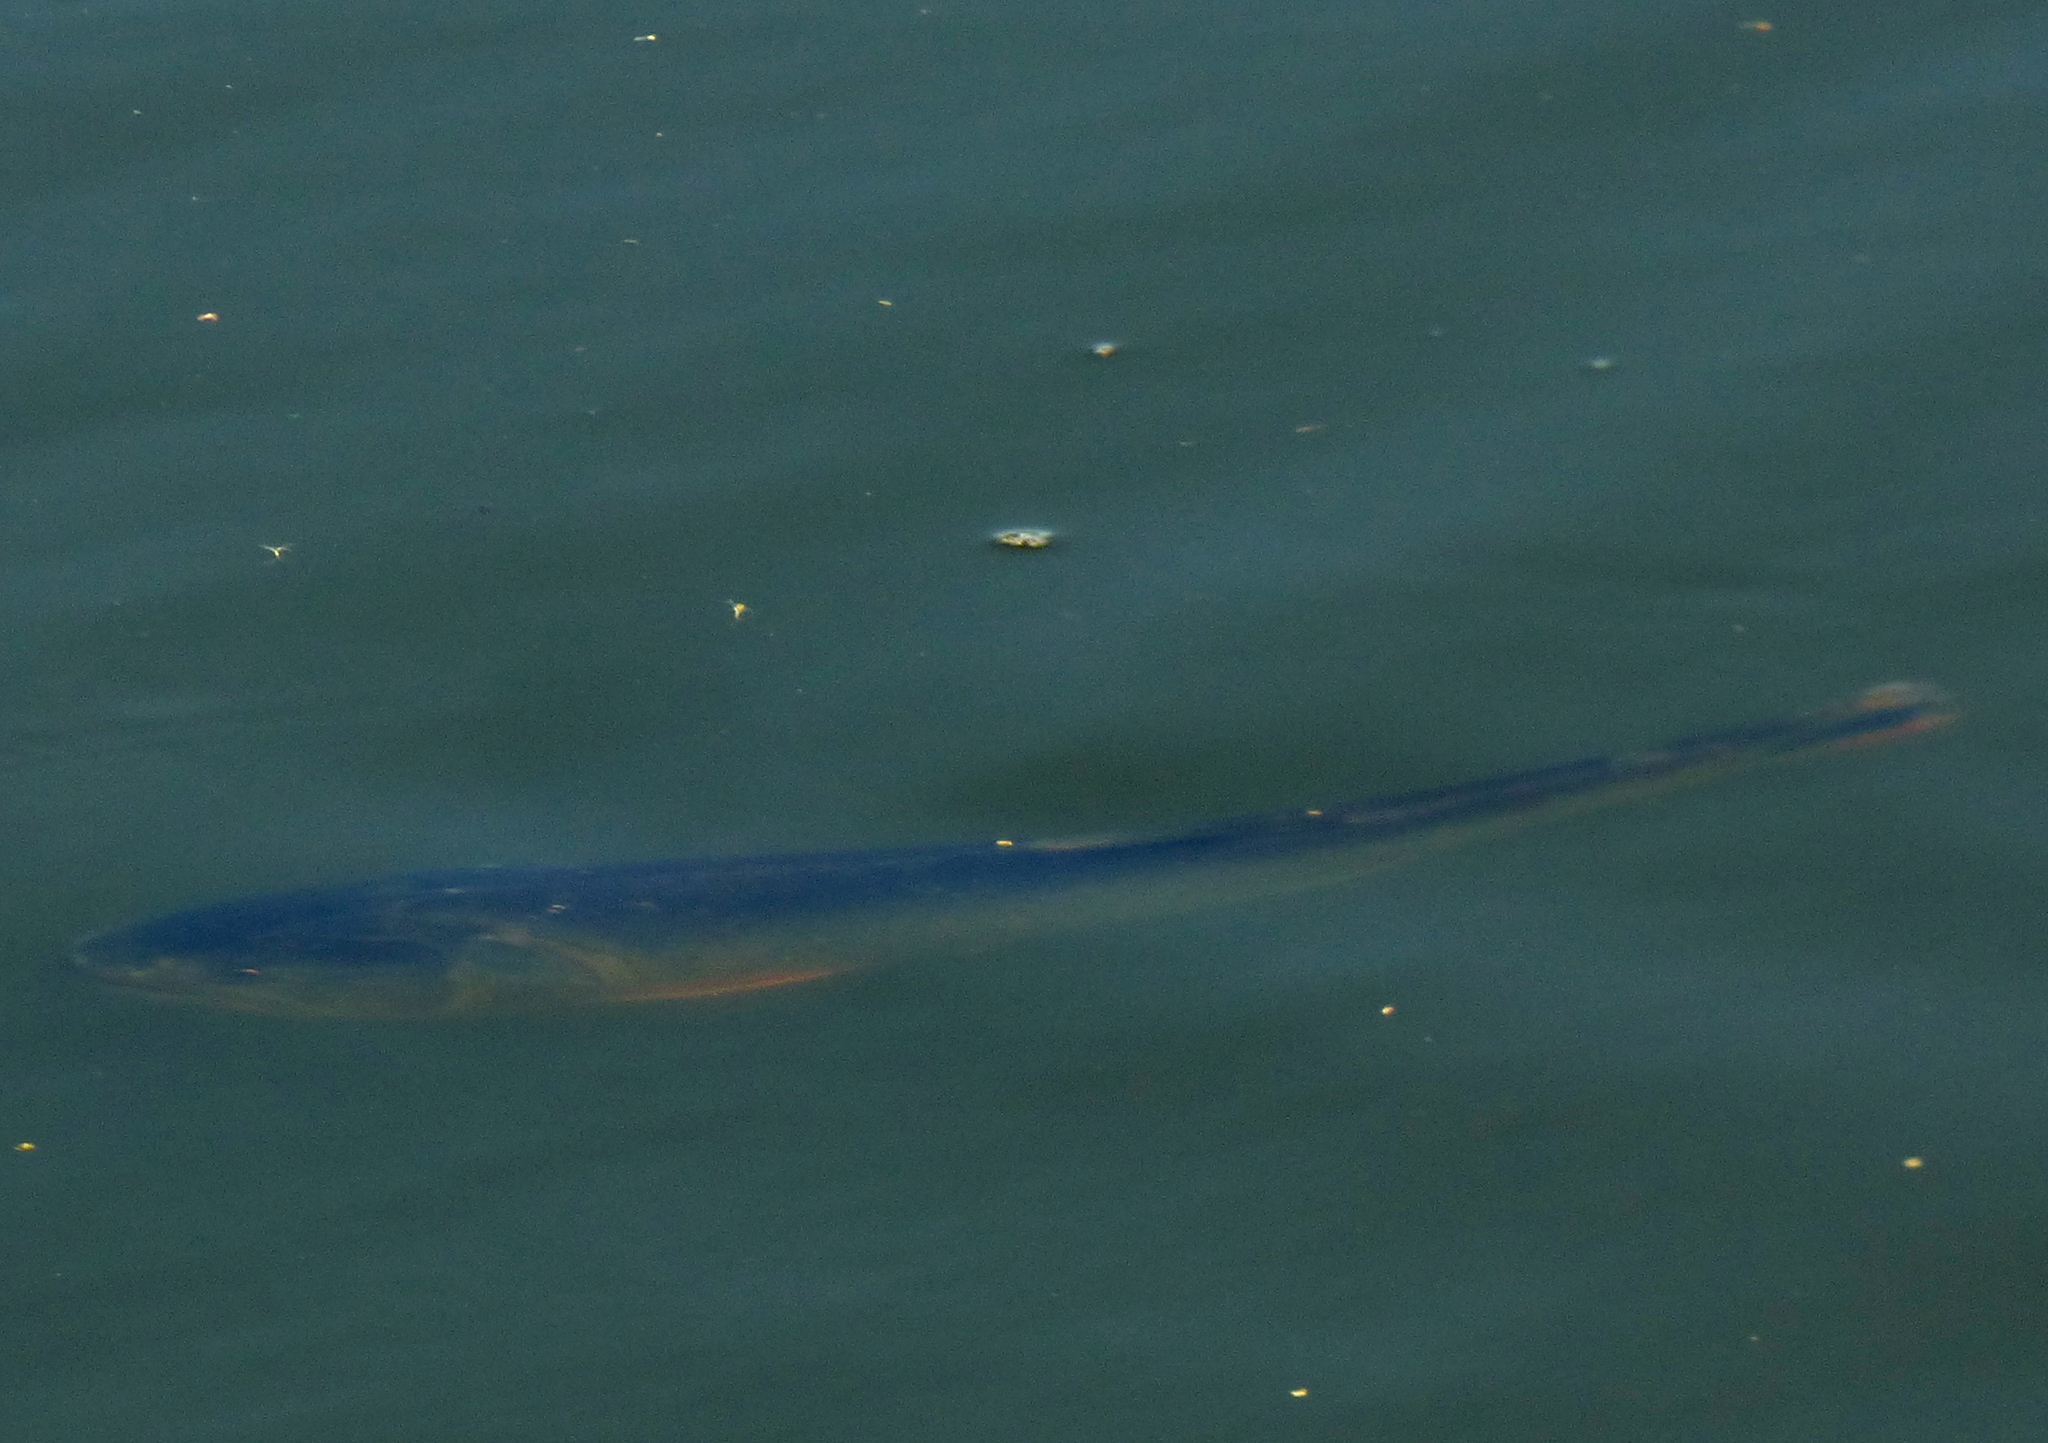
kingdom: Animalia
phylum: Chordata
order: Characiformes
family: Bryconidae
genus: Salminus
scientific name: Salminus brasiliensis
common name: Dorado
